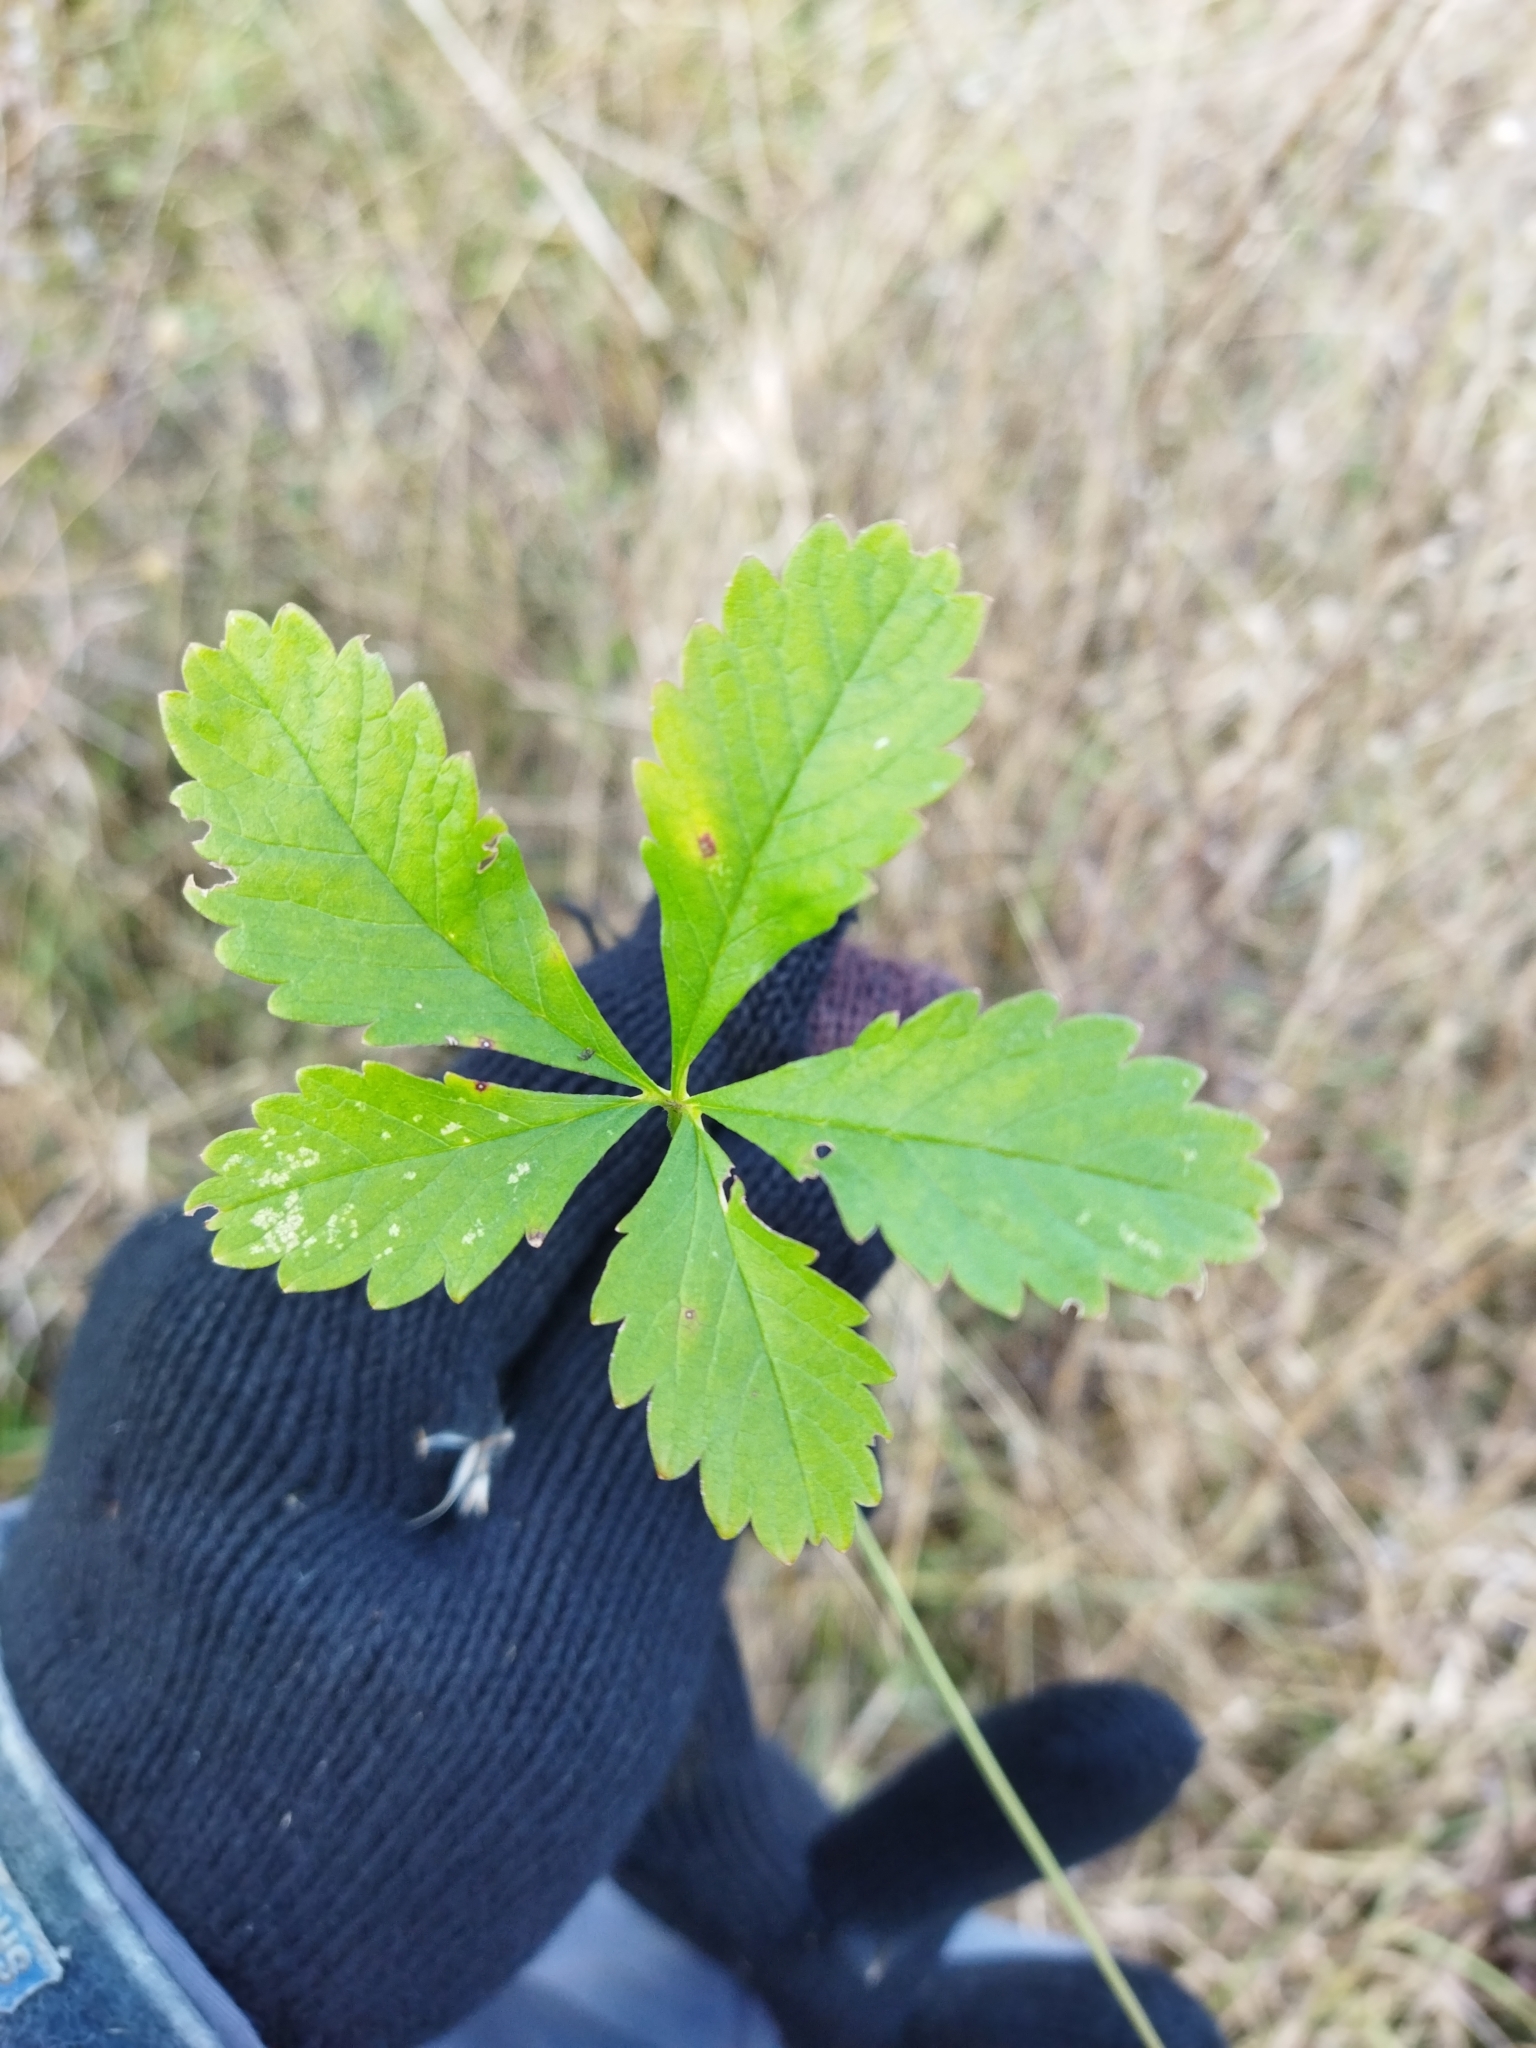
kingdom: Plantae
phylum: Tracheophyta
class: Magnoliopsida
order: Rosales
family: Rosaceae
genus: Potentilla
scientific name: Potentilla reptans
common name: Creeping cinquefoil
